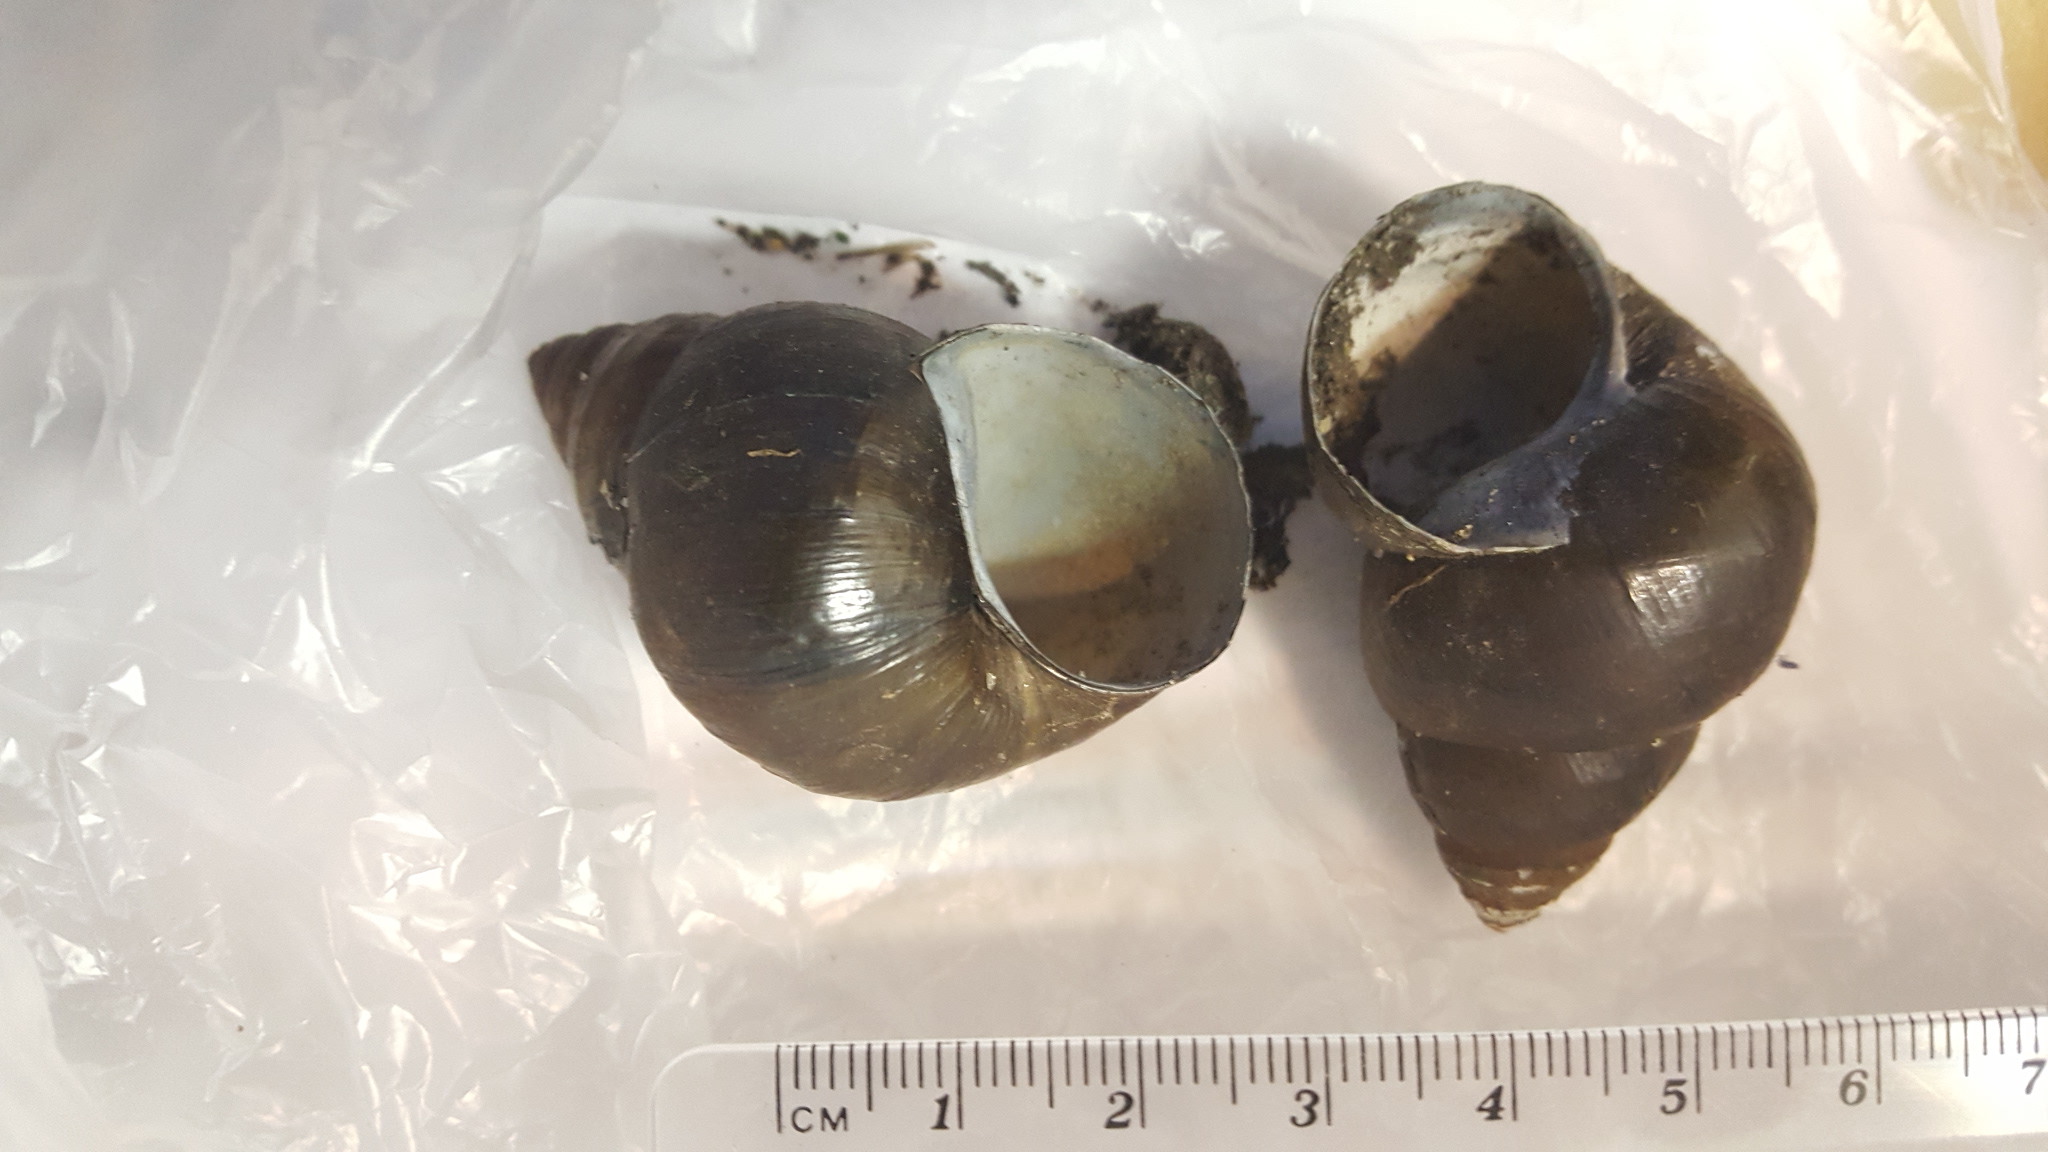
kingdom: Animalia
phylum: Mollusca
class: Gastropoda
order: Architaenioglossa
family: Viviparidae
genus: Cipangopaludina
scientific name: Cipangopaludina chinensis
